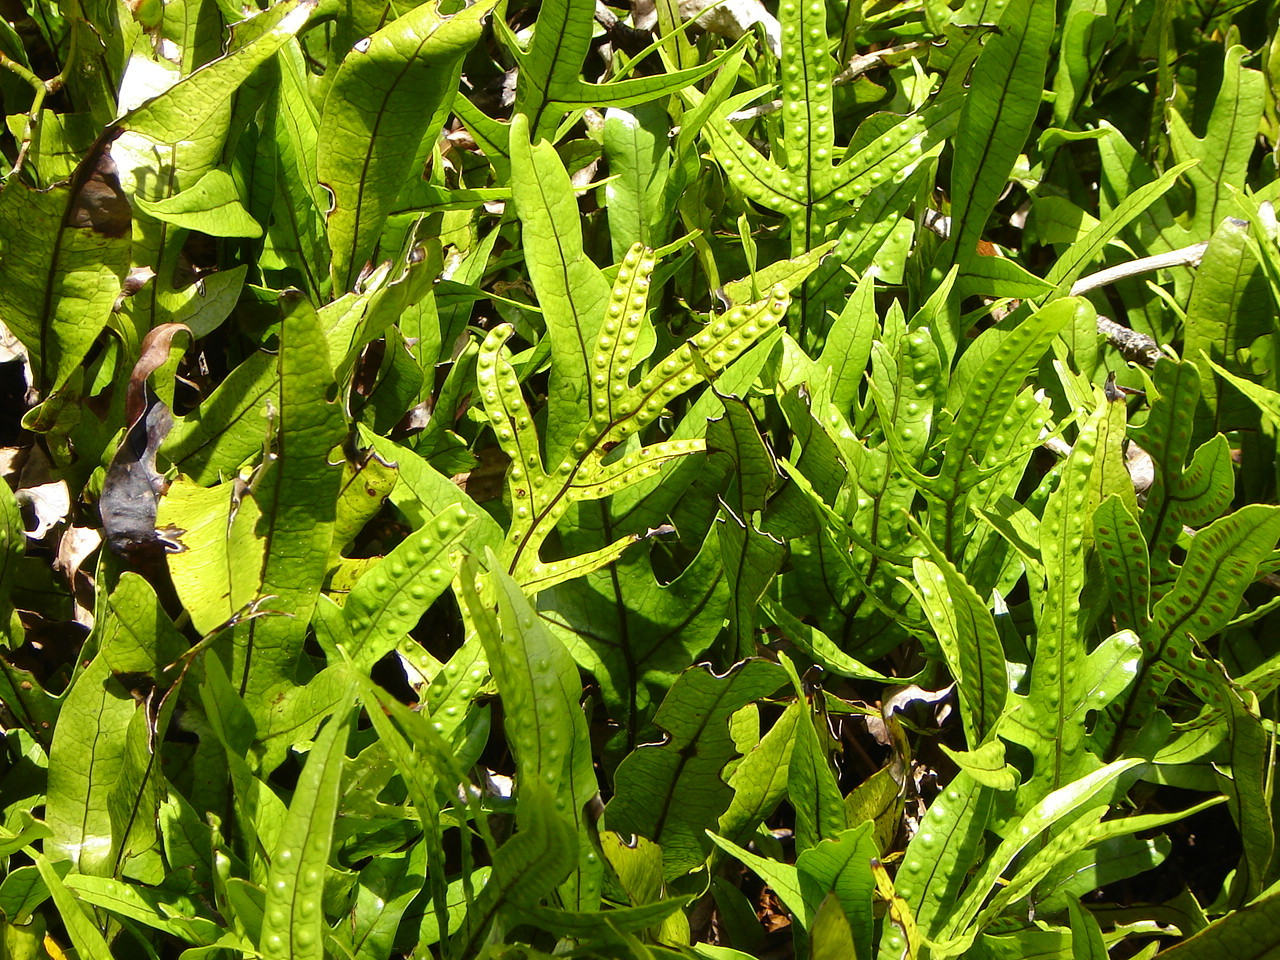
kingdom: Plantae
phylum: Tracheophyta
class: Polypodiopsida
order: Polypodiales
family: Polypodiaceae
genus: Lecanopteris
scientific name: Lecanopteris pustulata
